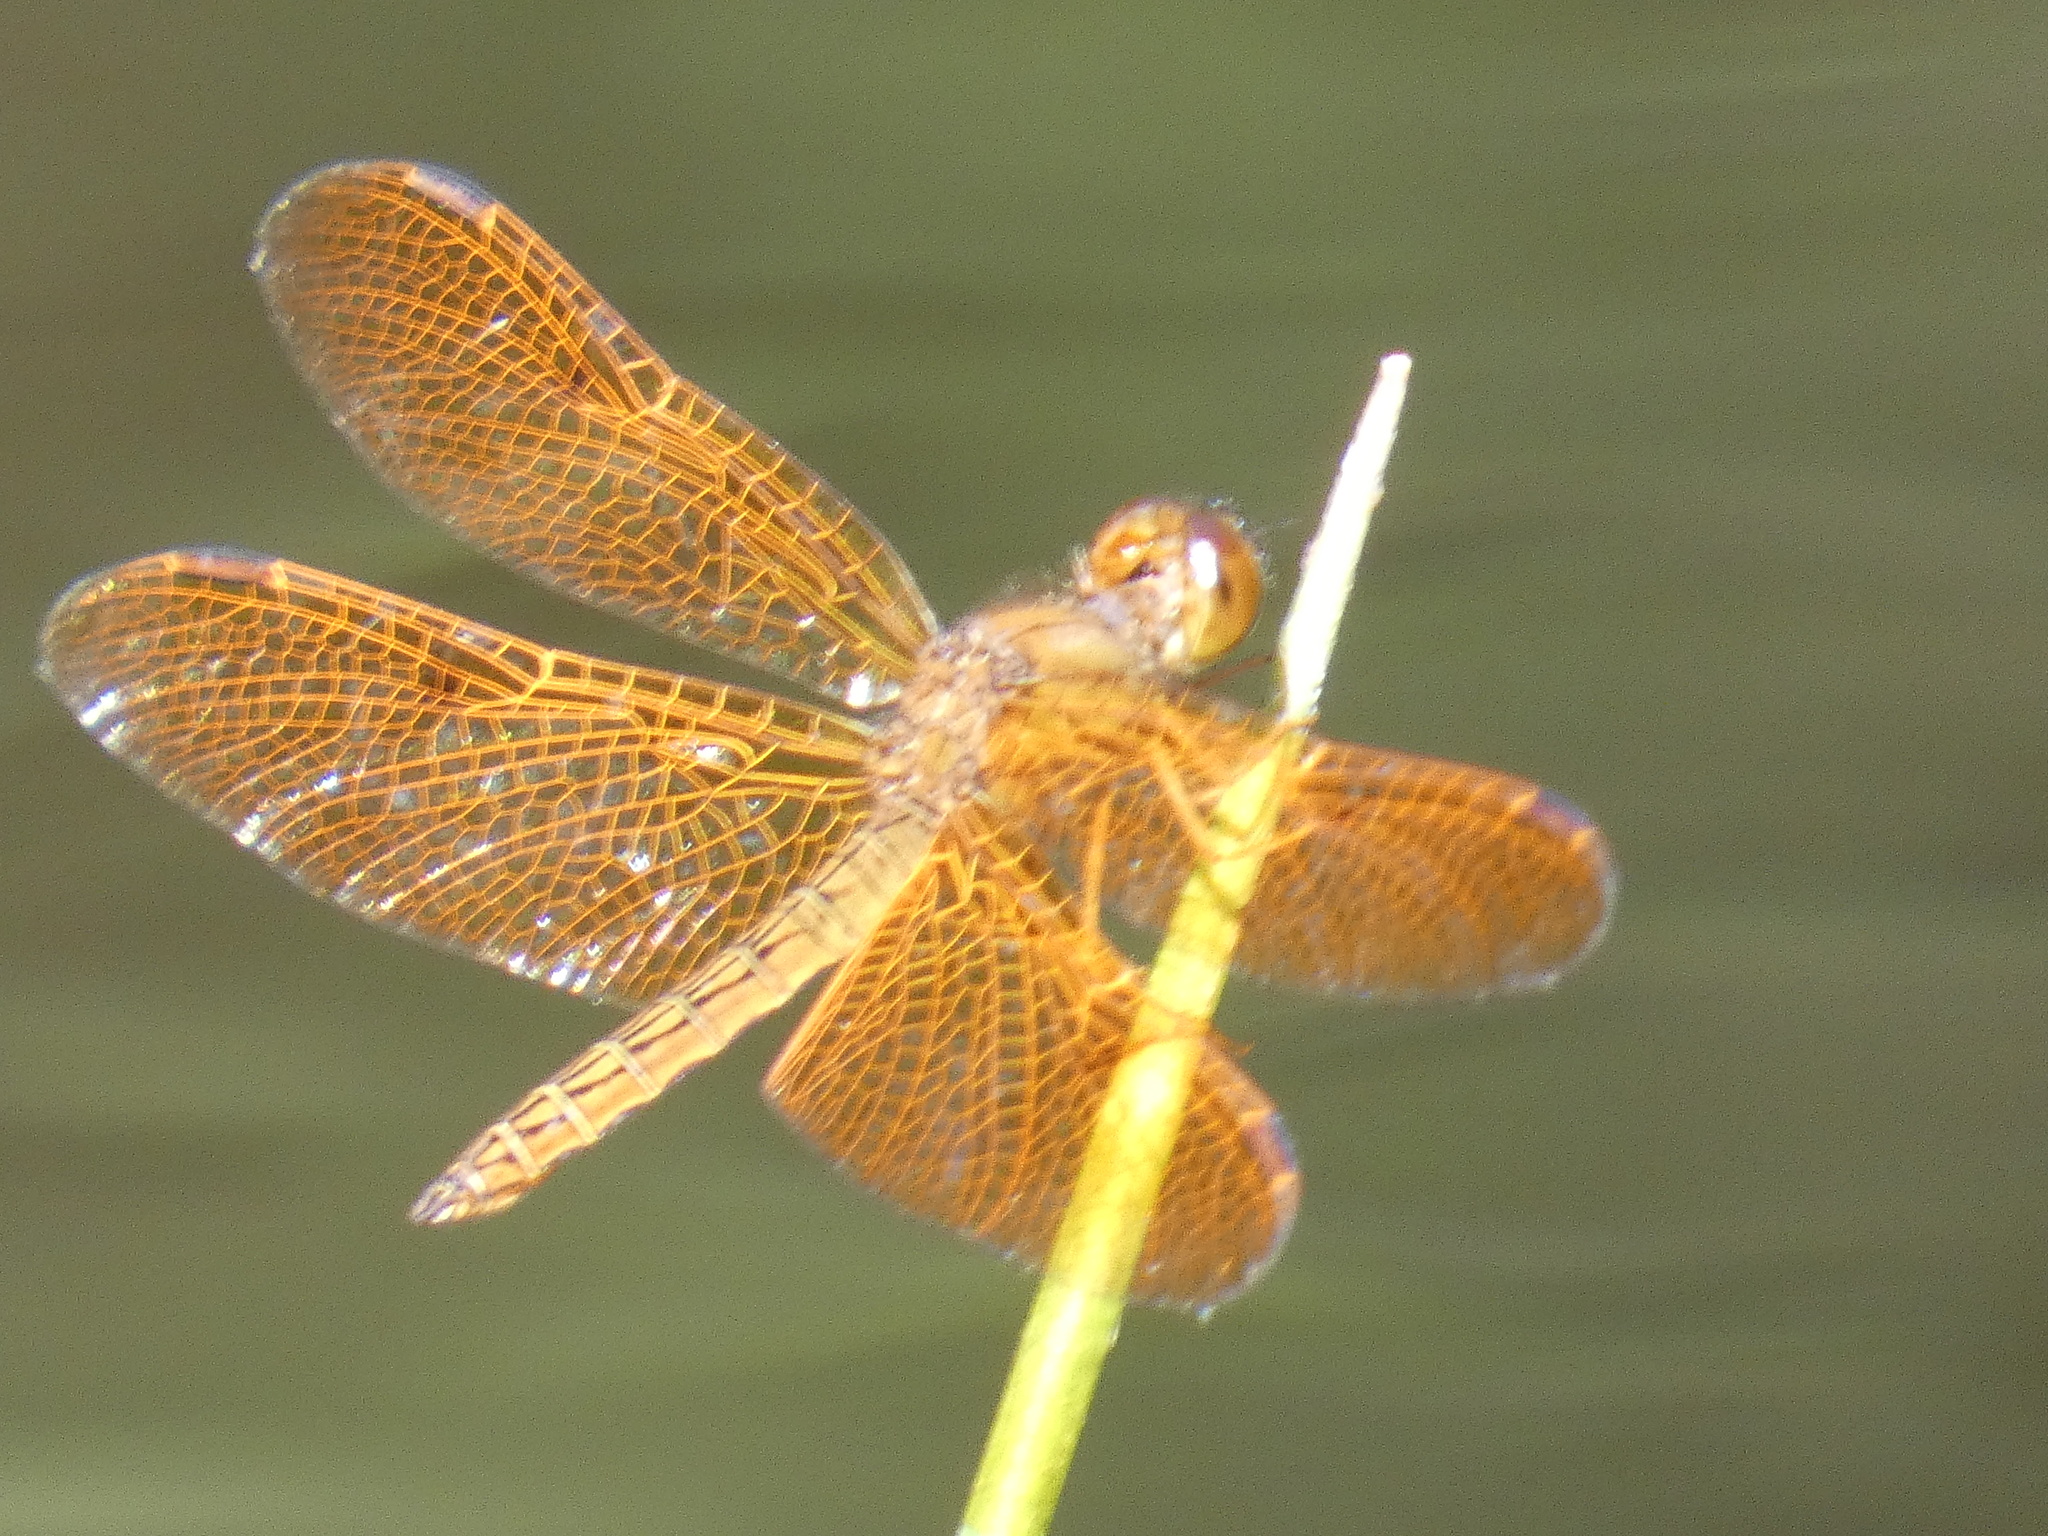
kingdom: Animalia
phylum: Arthropoda
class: Insecta
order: Odonata
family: Libellulidae
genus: Perithemis
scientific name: Perithemis icteroptera
